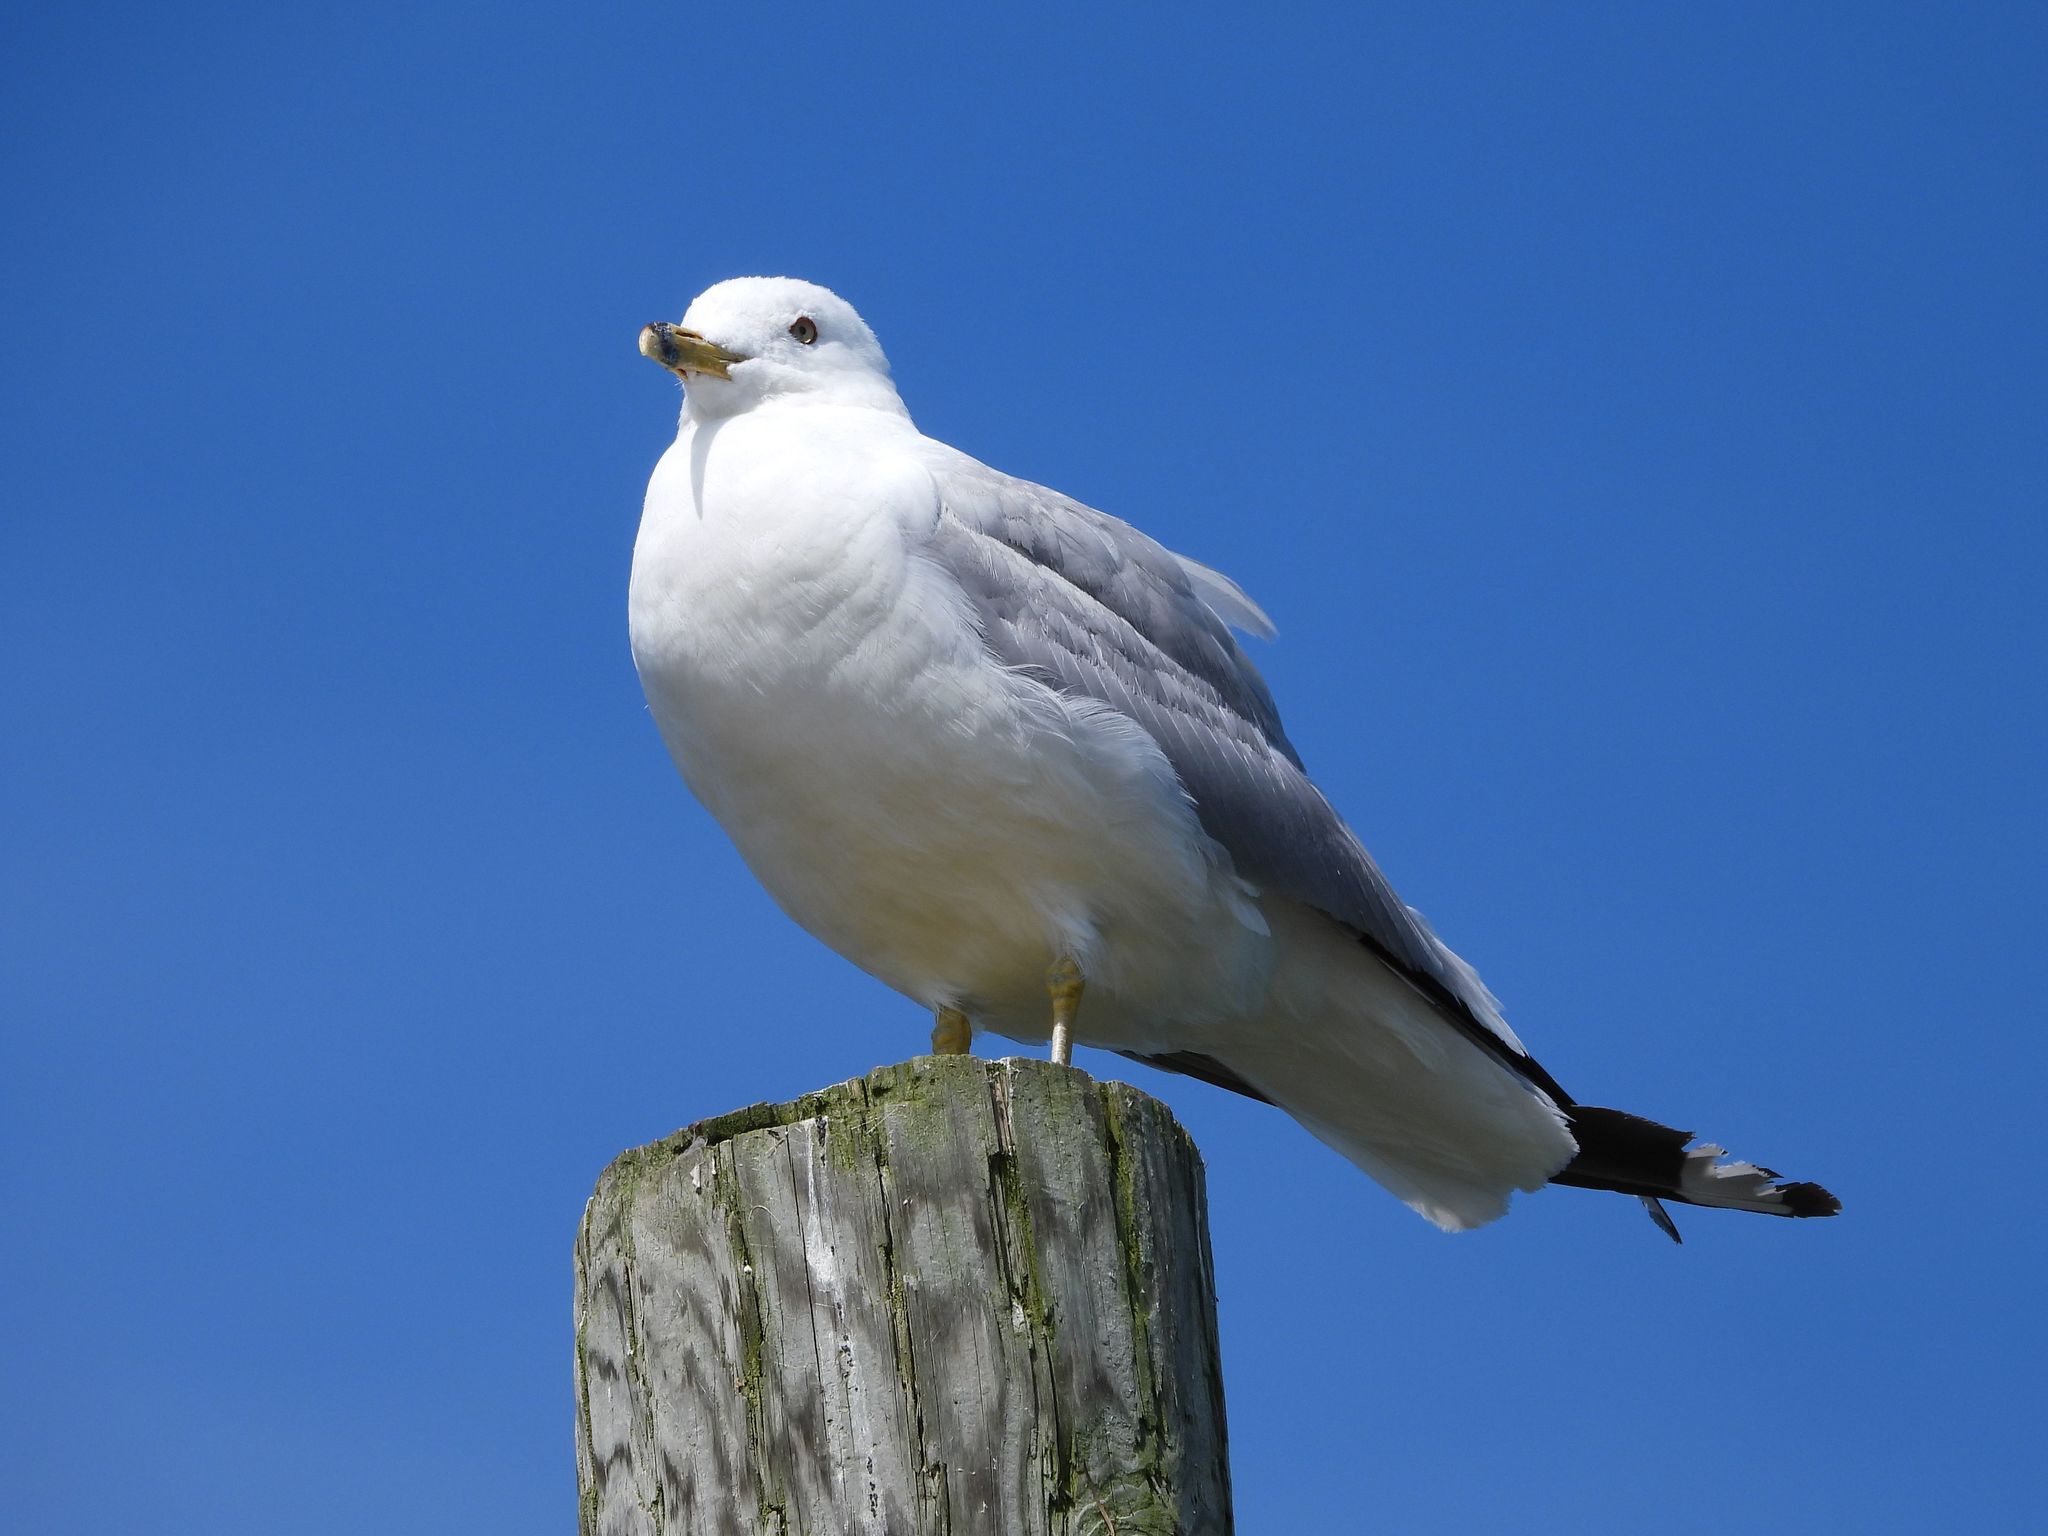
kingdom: Animalia
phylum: Chordata
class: Aves
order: Charadriiformes
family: Laridae
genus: Larus
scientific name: Larus delawarensis
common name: Ring-billed gull
